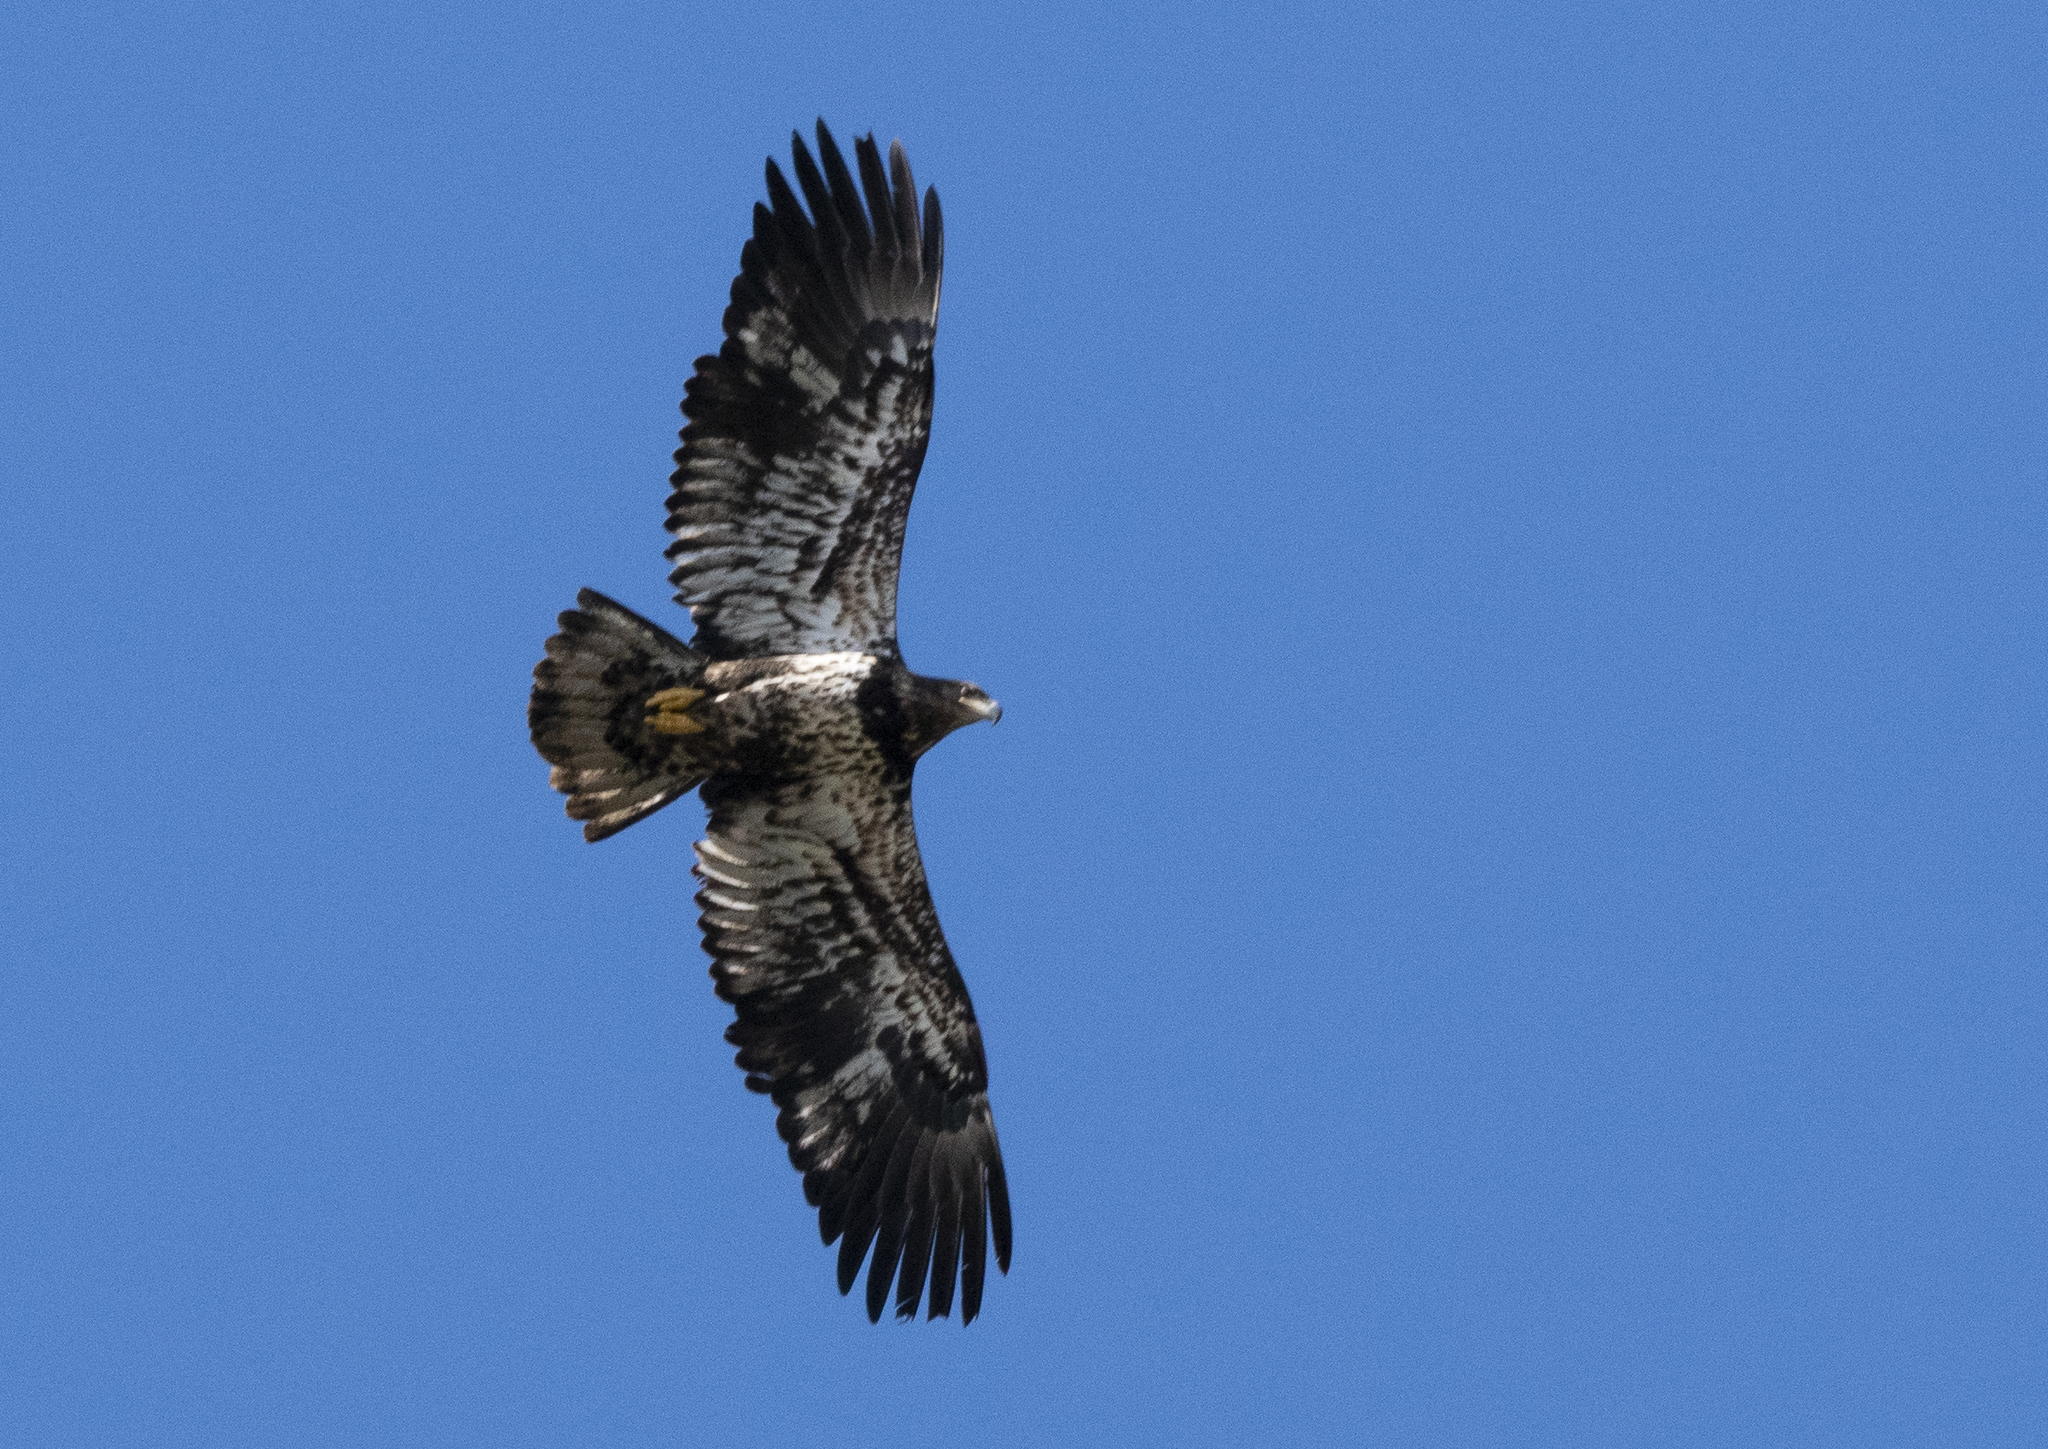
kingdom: Animalia
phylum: Chordata
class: Aves
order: Accipitriformes
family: Accipitridae
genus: Haliaeetus
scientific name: Haliaeetus leucocephalus
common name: Bald eagle
